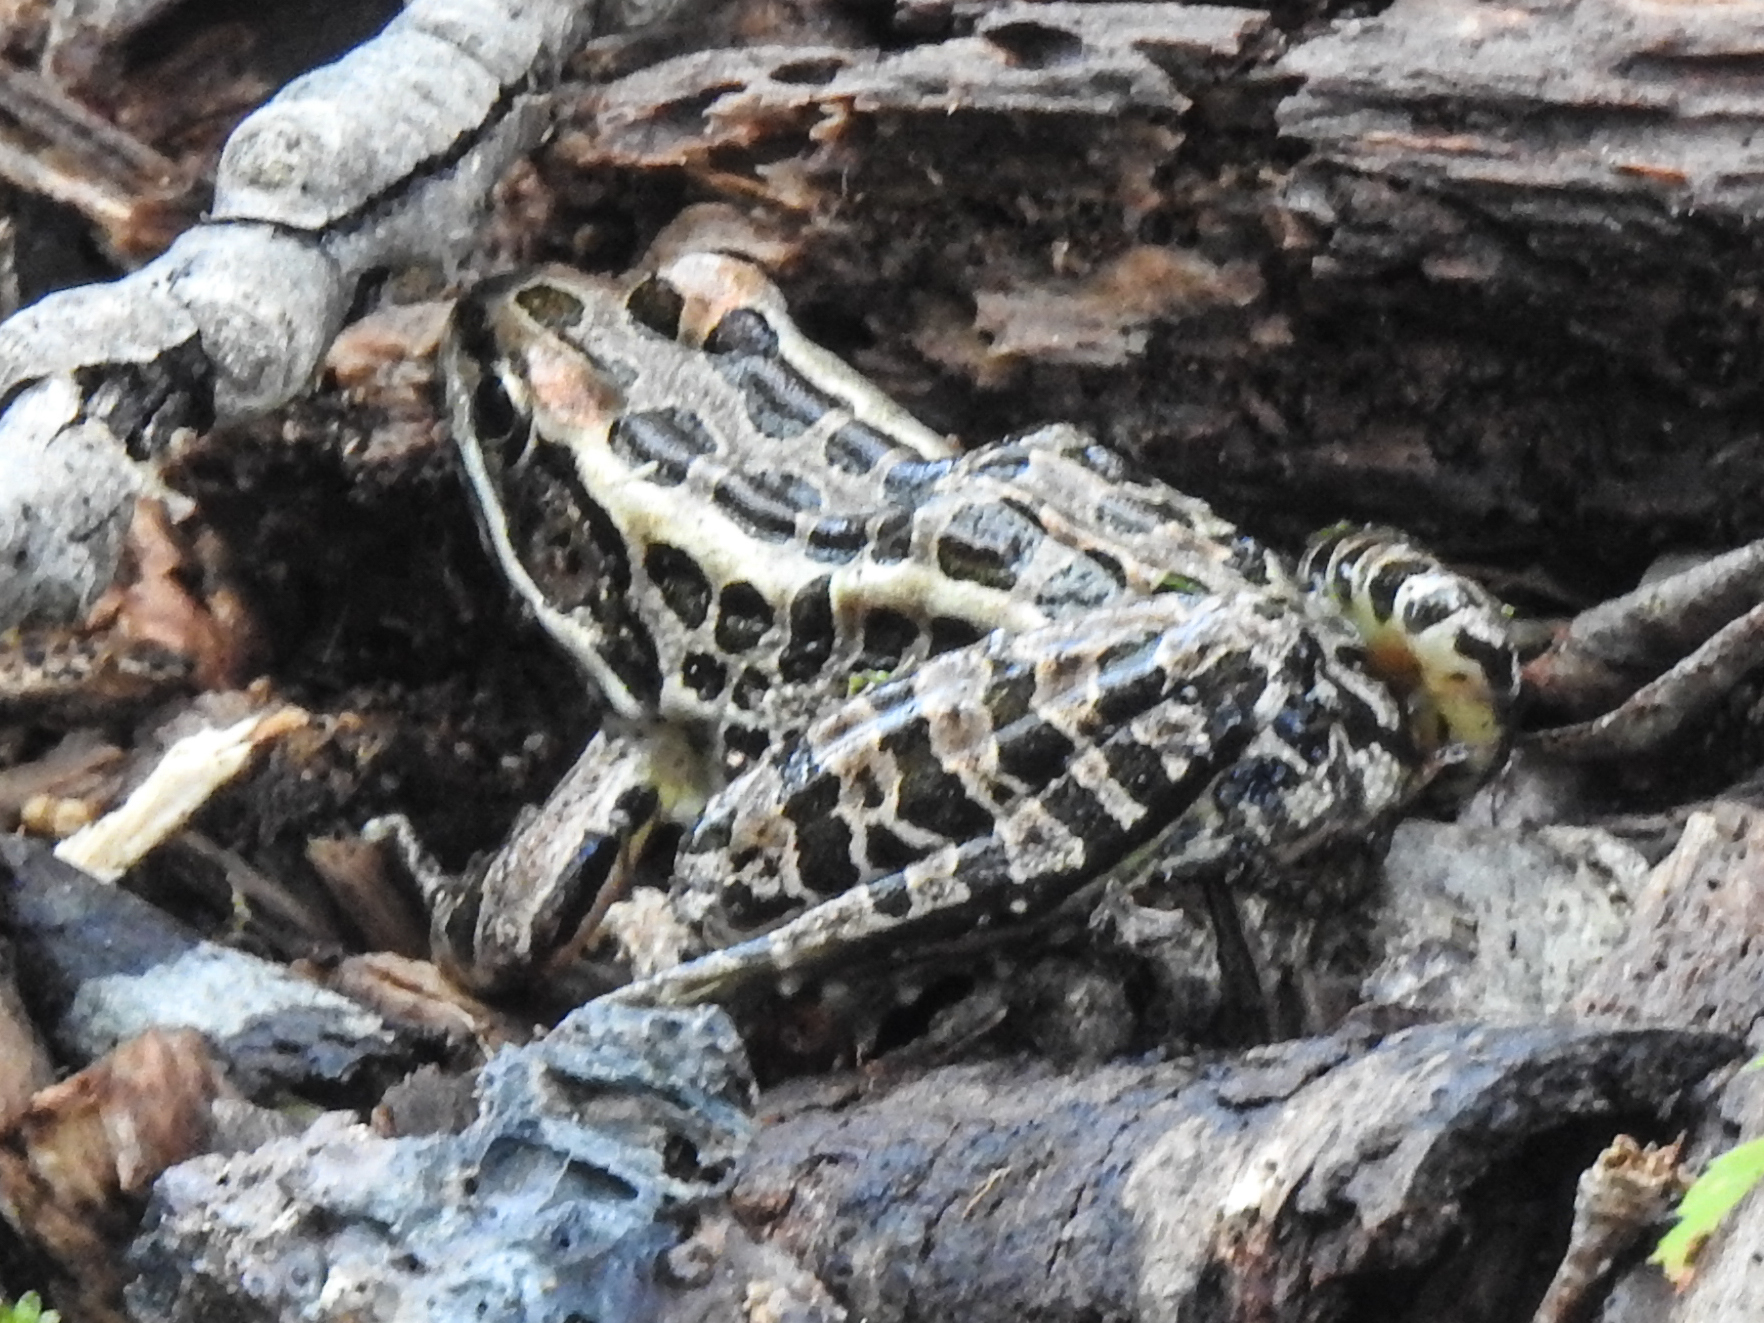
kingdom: Animalia
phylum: Chordata
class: Amphibia
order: Anura
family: Ranidae
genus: Lithobates
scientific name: Lithobates palustris
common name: Pickerel frog
